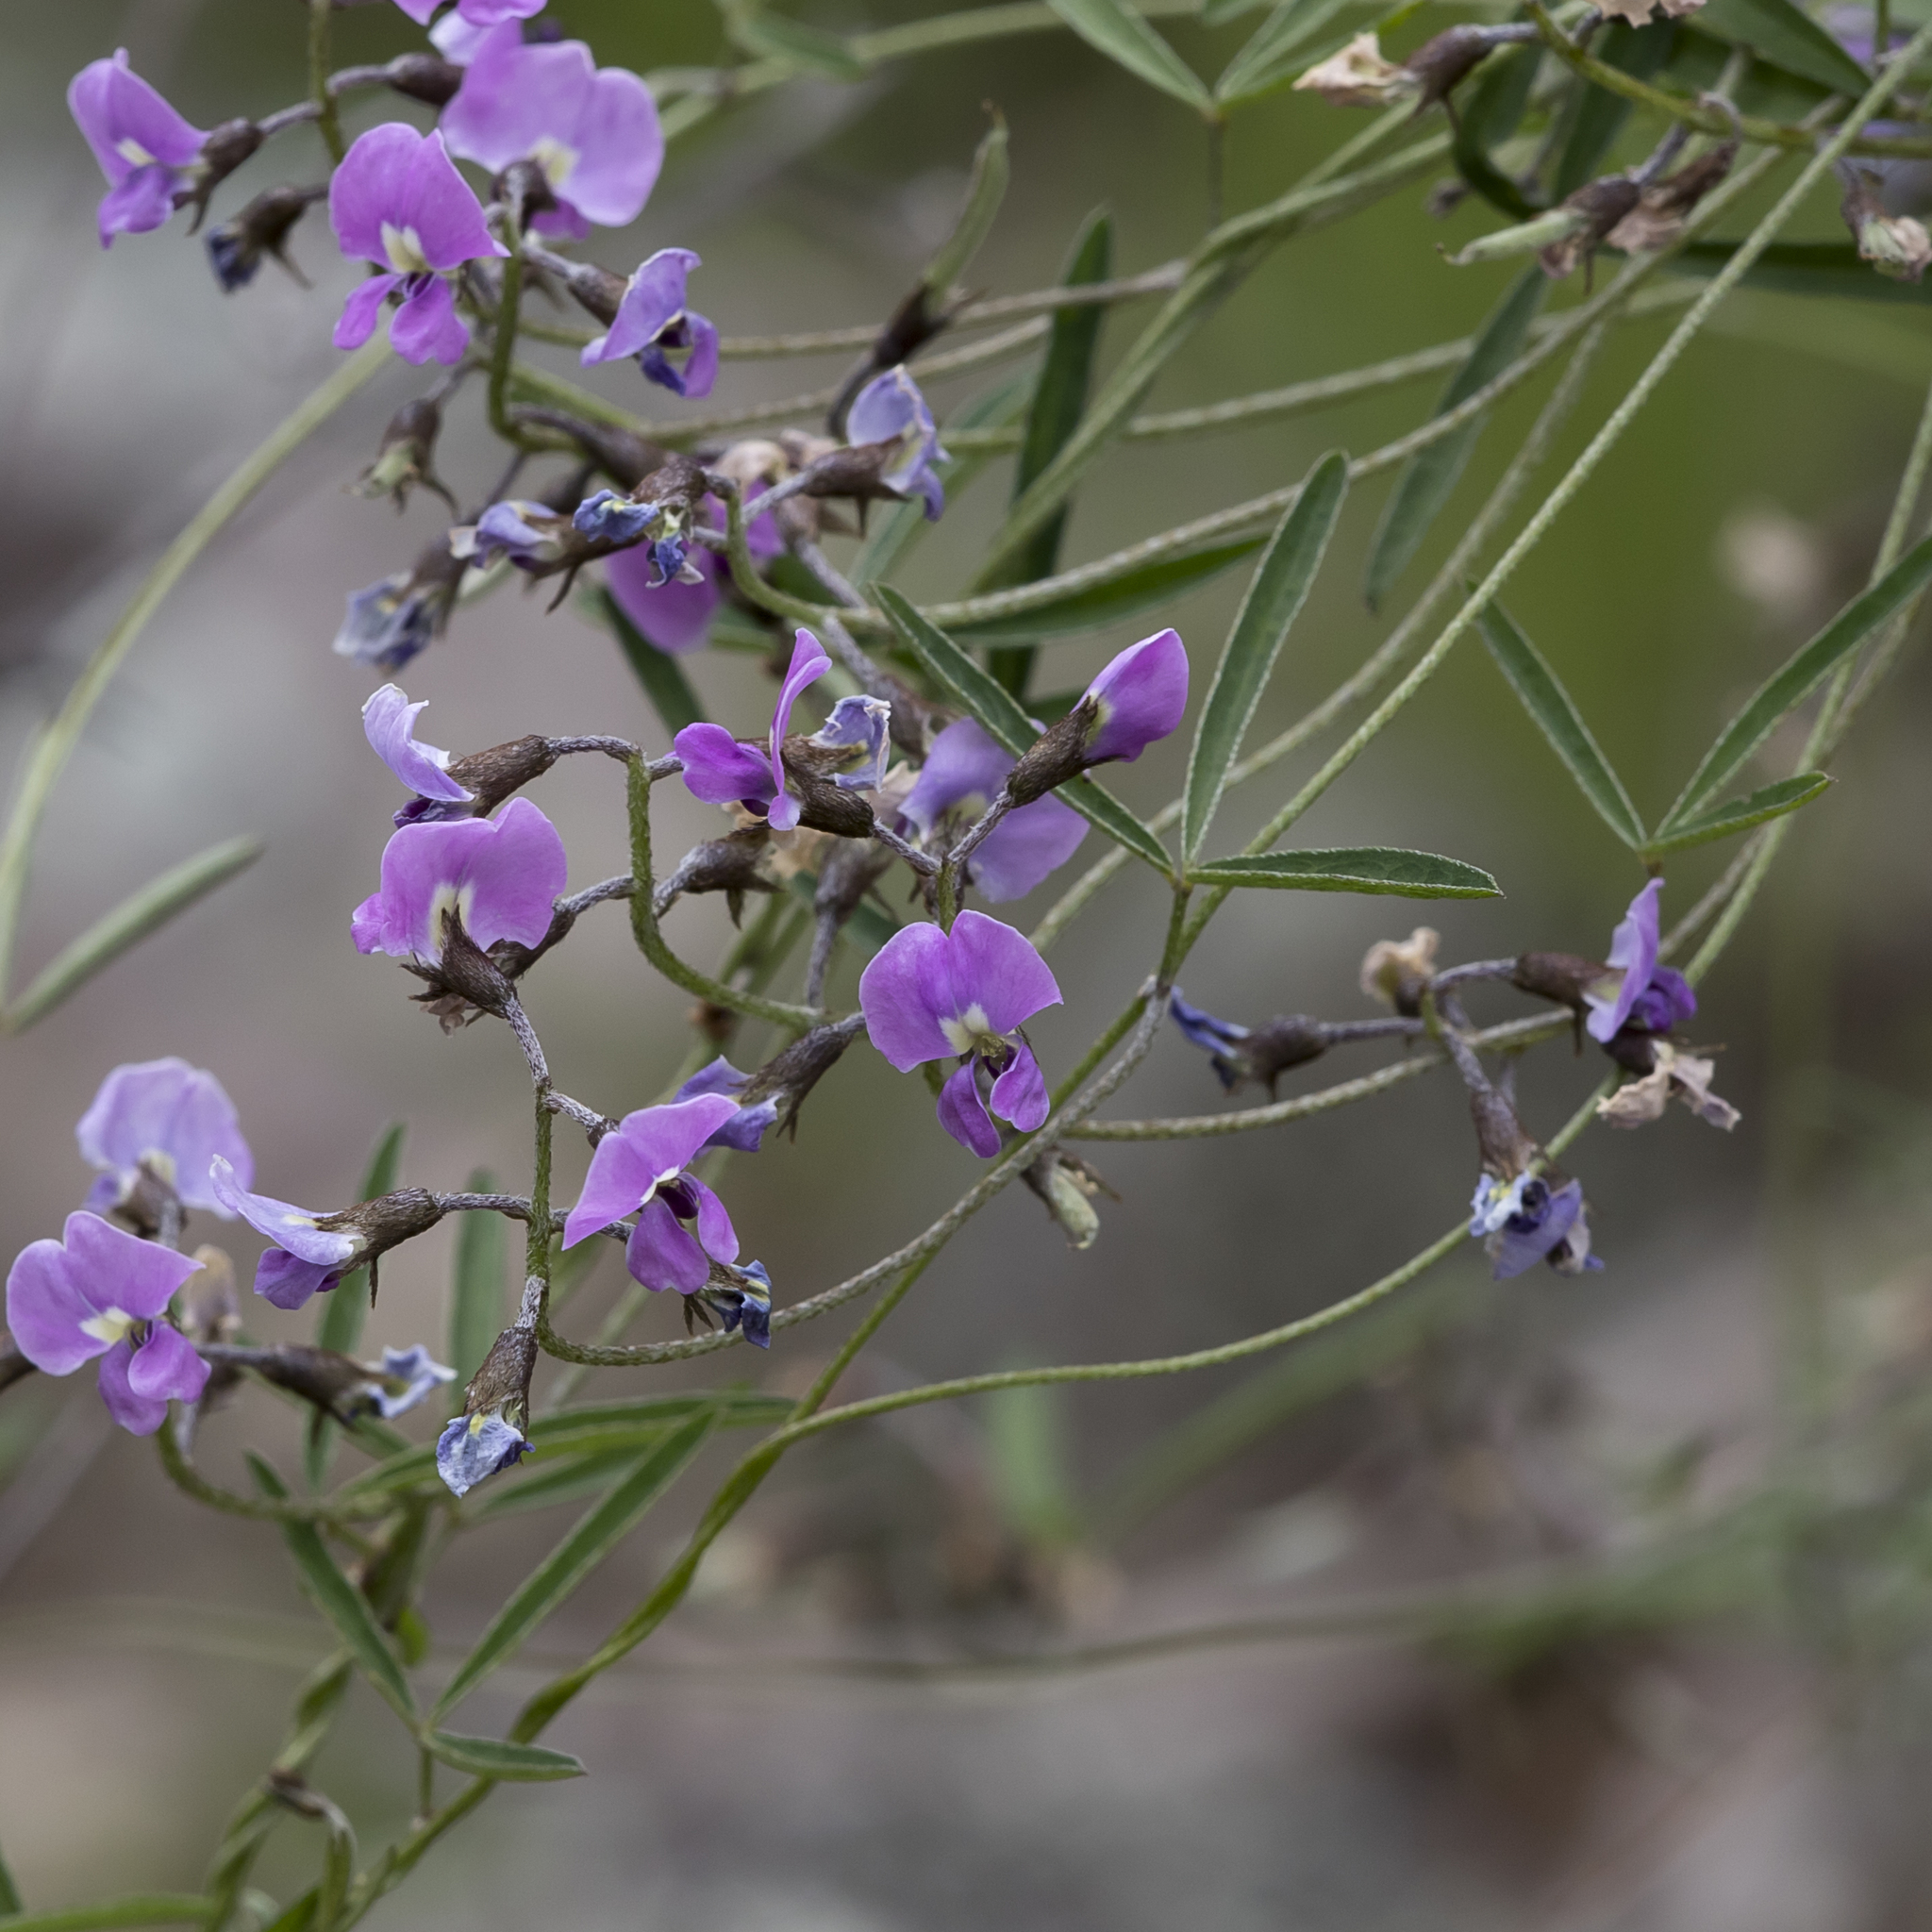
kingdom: Plantae
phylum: Tracheophyta
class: Magnoliopsida
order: Fabales
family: Fabaceae
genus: Glycine
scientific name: Glycine rubiginosa
